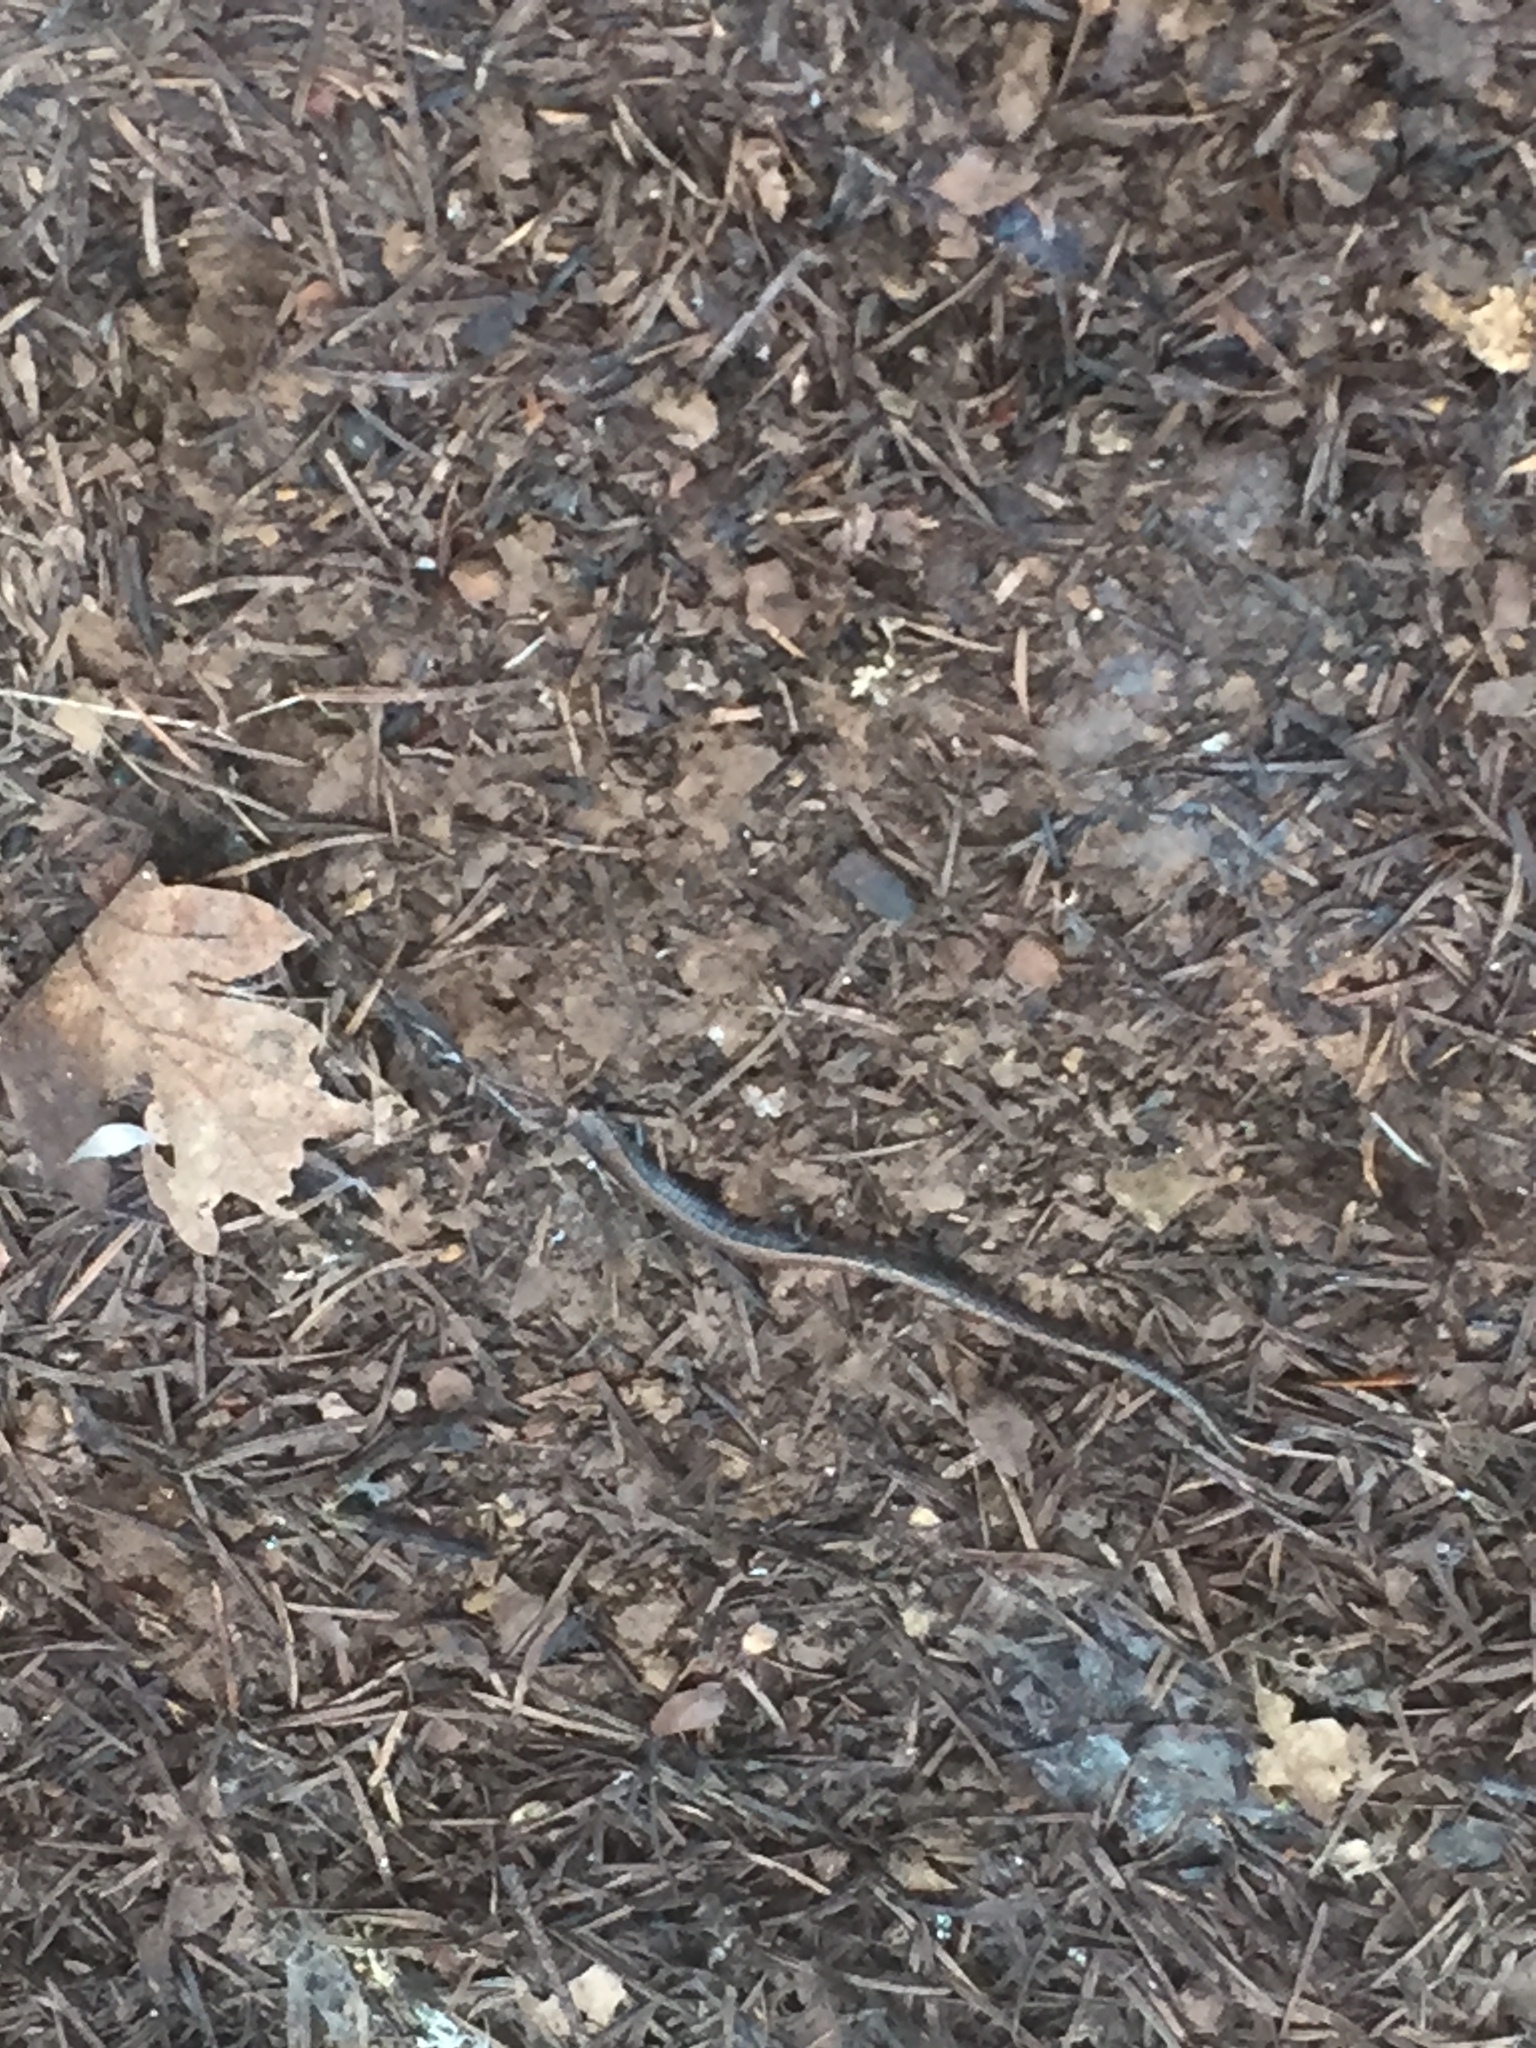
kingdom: Animalia
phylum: Chordata
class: Amphibia
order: Caudata
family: Plethodontidae
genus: Batrachoseps
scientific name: Batrachoseps attenuatus
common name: California slender salamander
